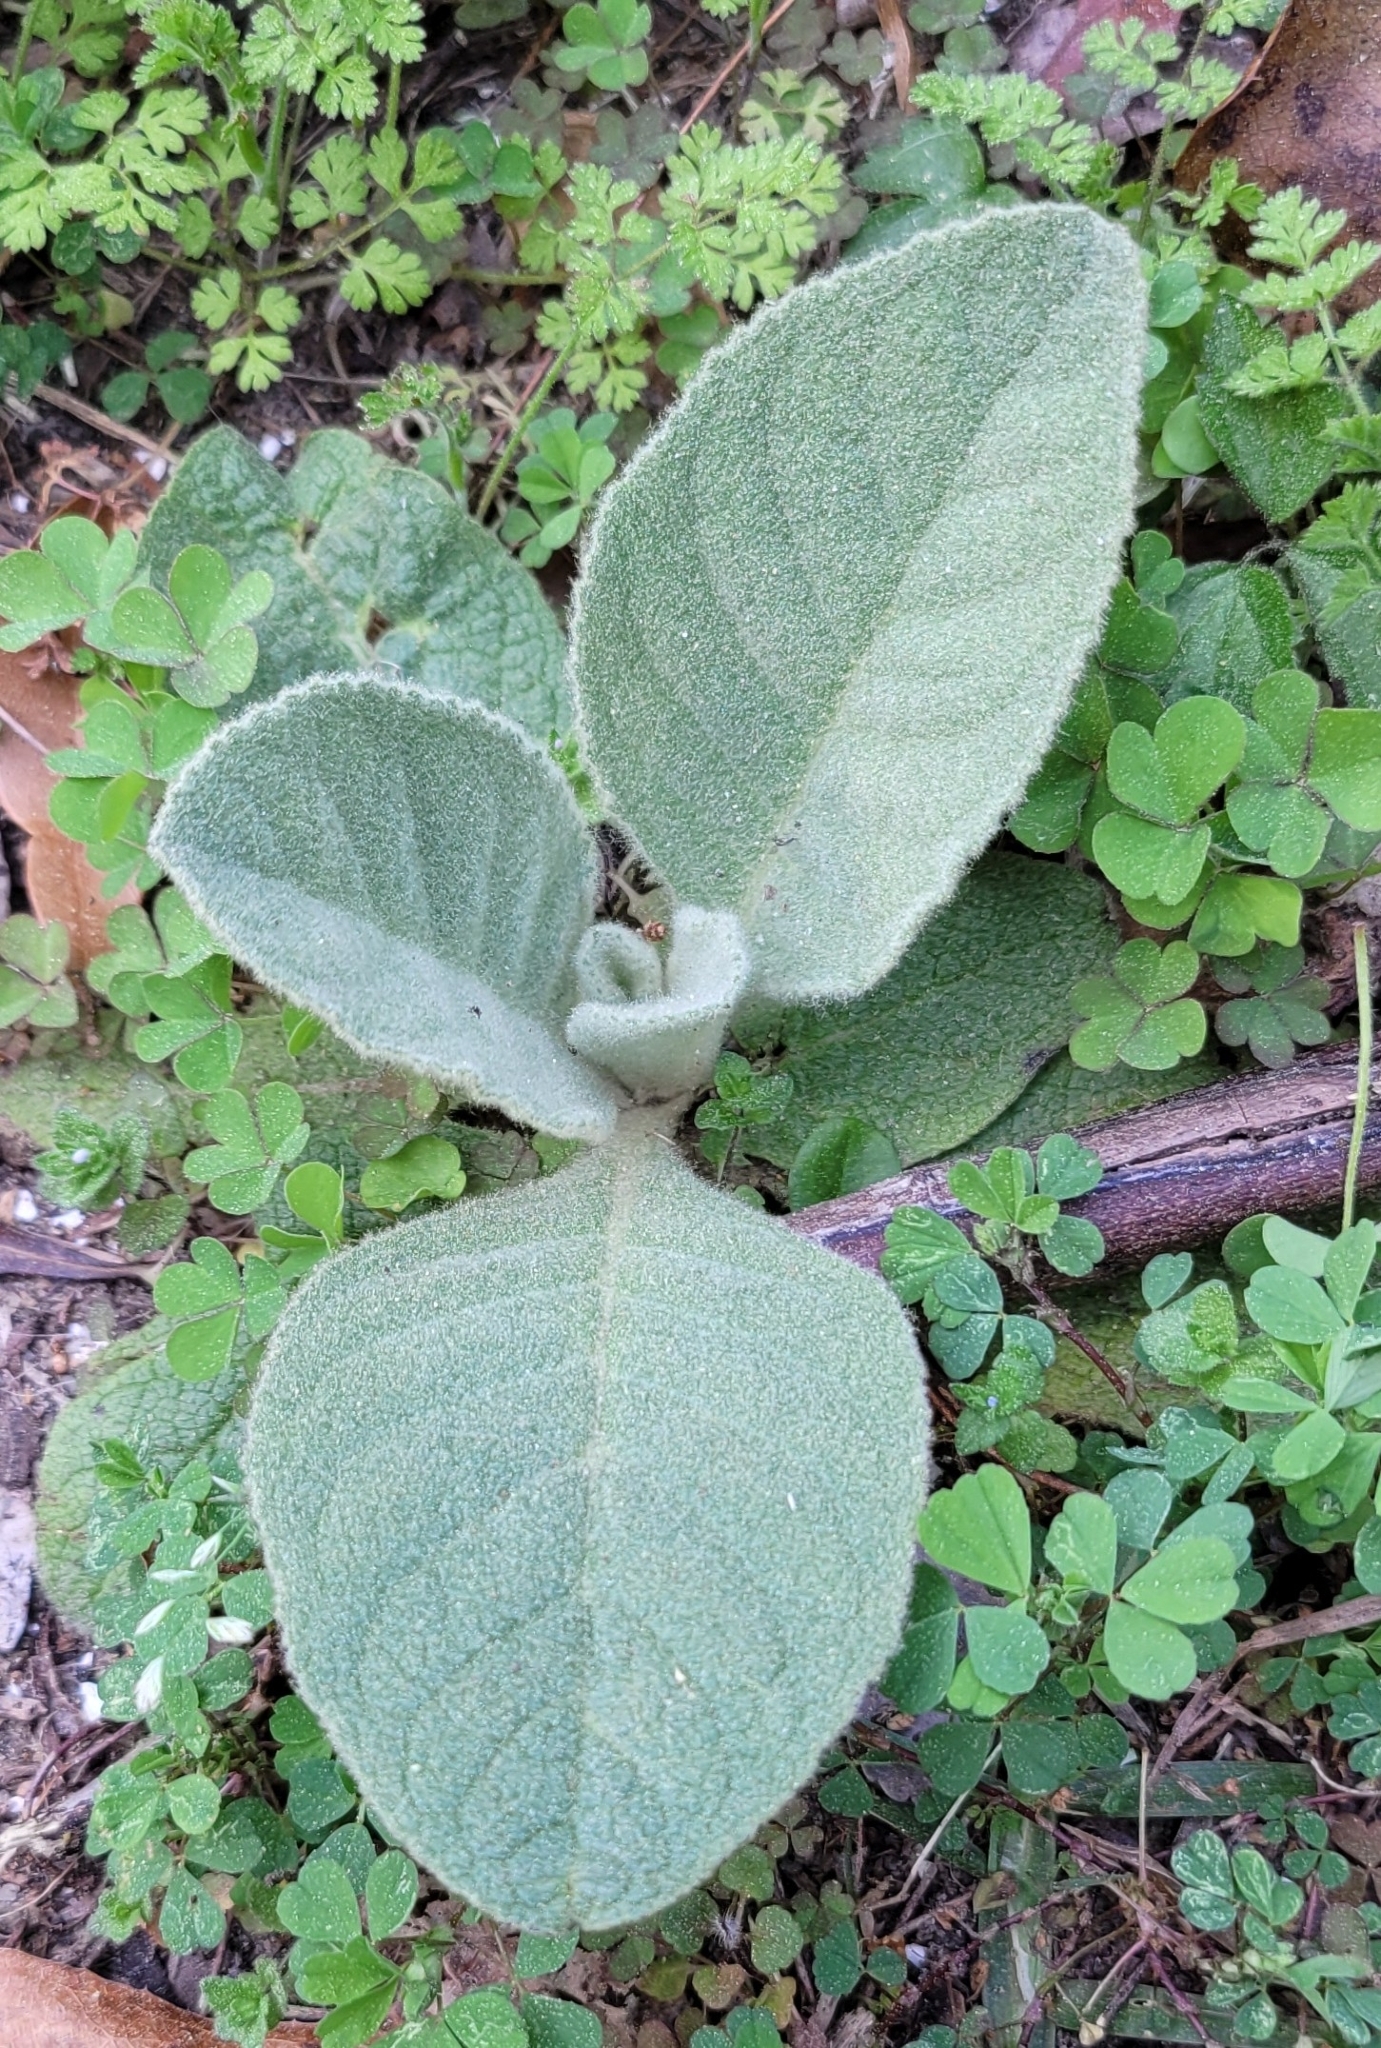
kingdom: Plantae
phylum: Tracheophyta
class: Magnoliopsida
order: Lamiales
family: Scrophulariaceae
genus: Verbascum
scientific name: Verbascum thapsus
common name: Common mullein
